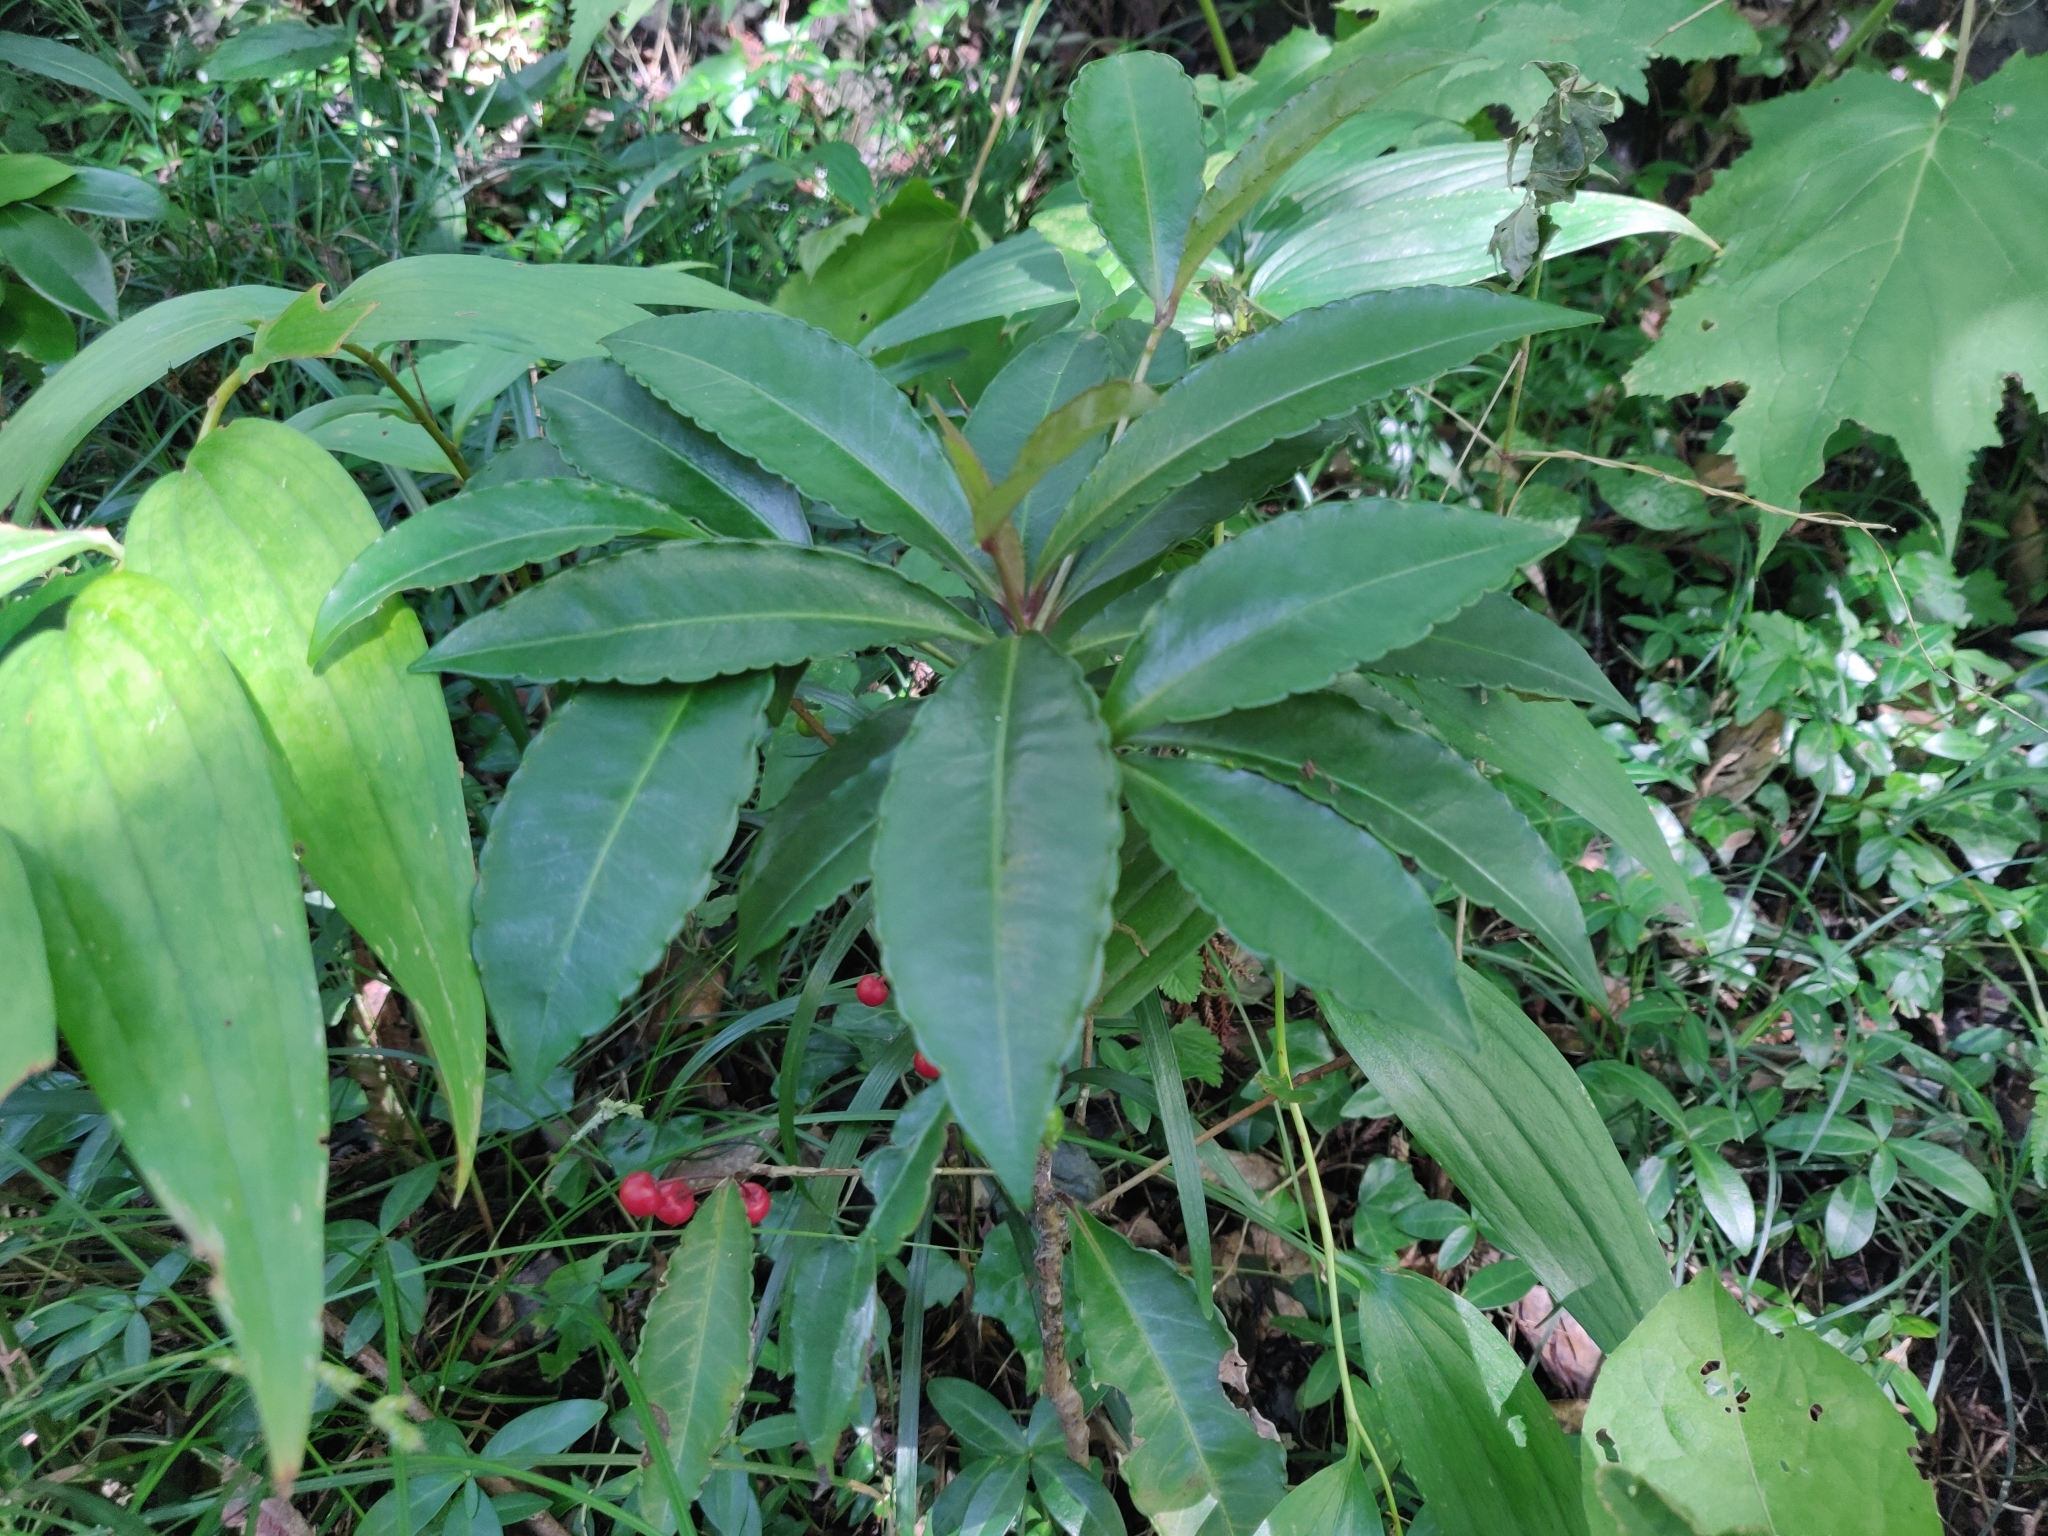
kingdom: Plantae
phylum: Tracheophyta
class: Magnoliopsida
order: Ericales
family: Primulaceae
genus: Ardisia
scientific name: Ardisia crenata
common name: Hen's eyes
